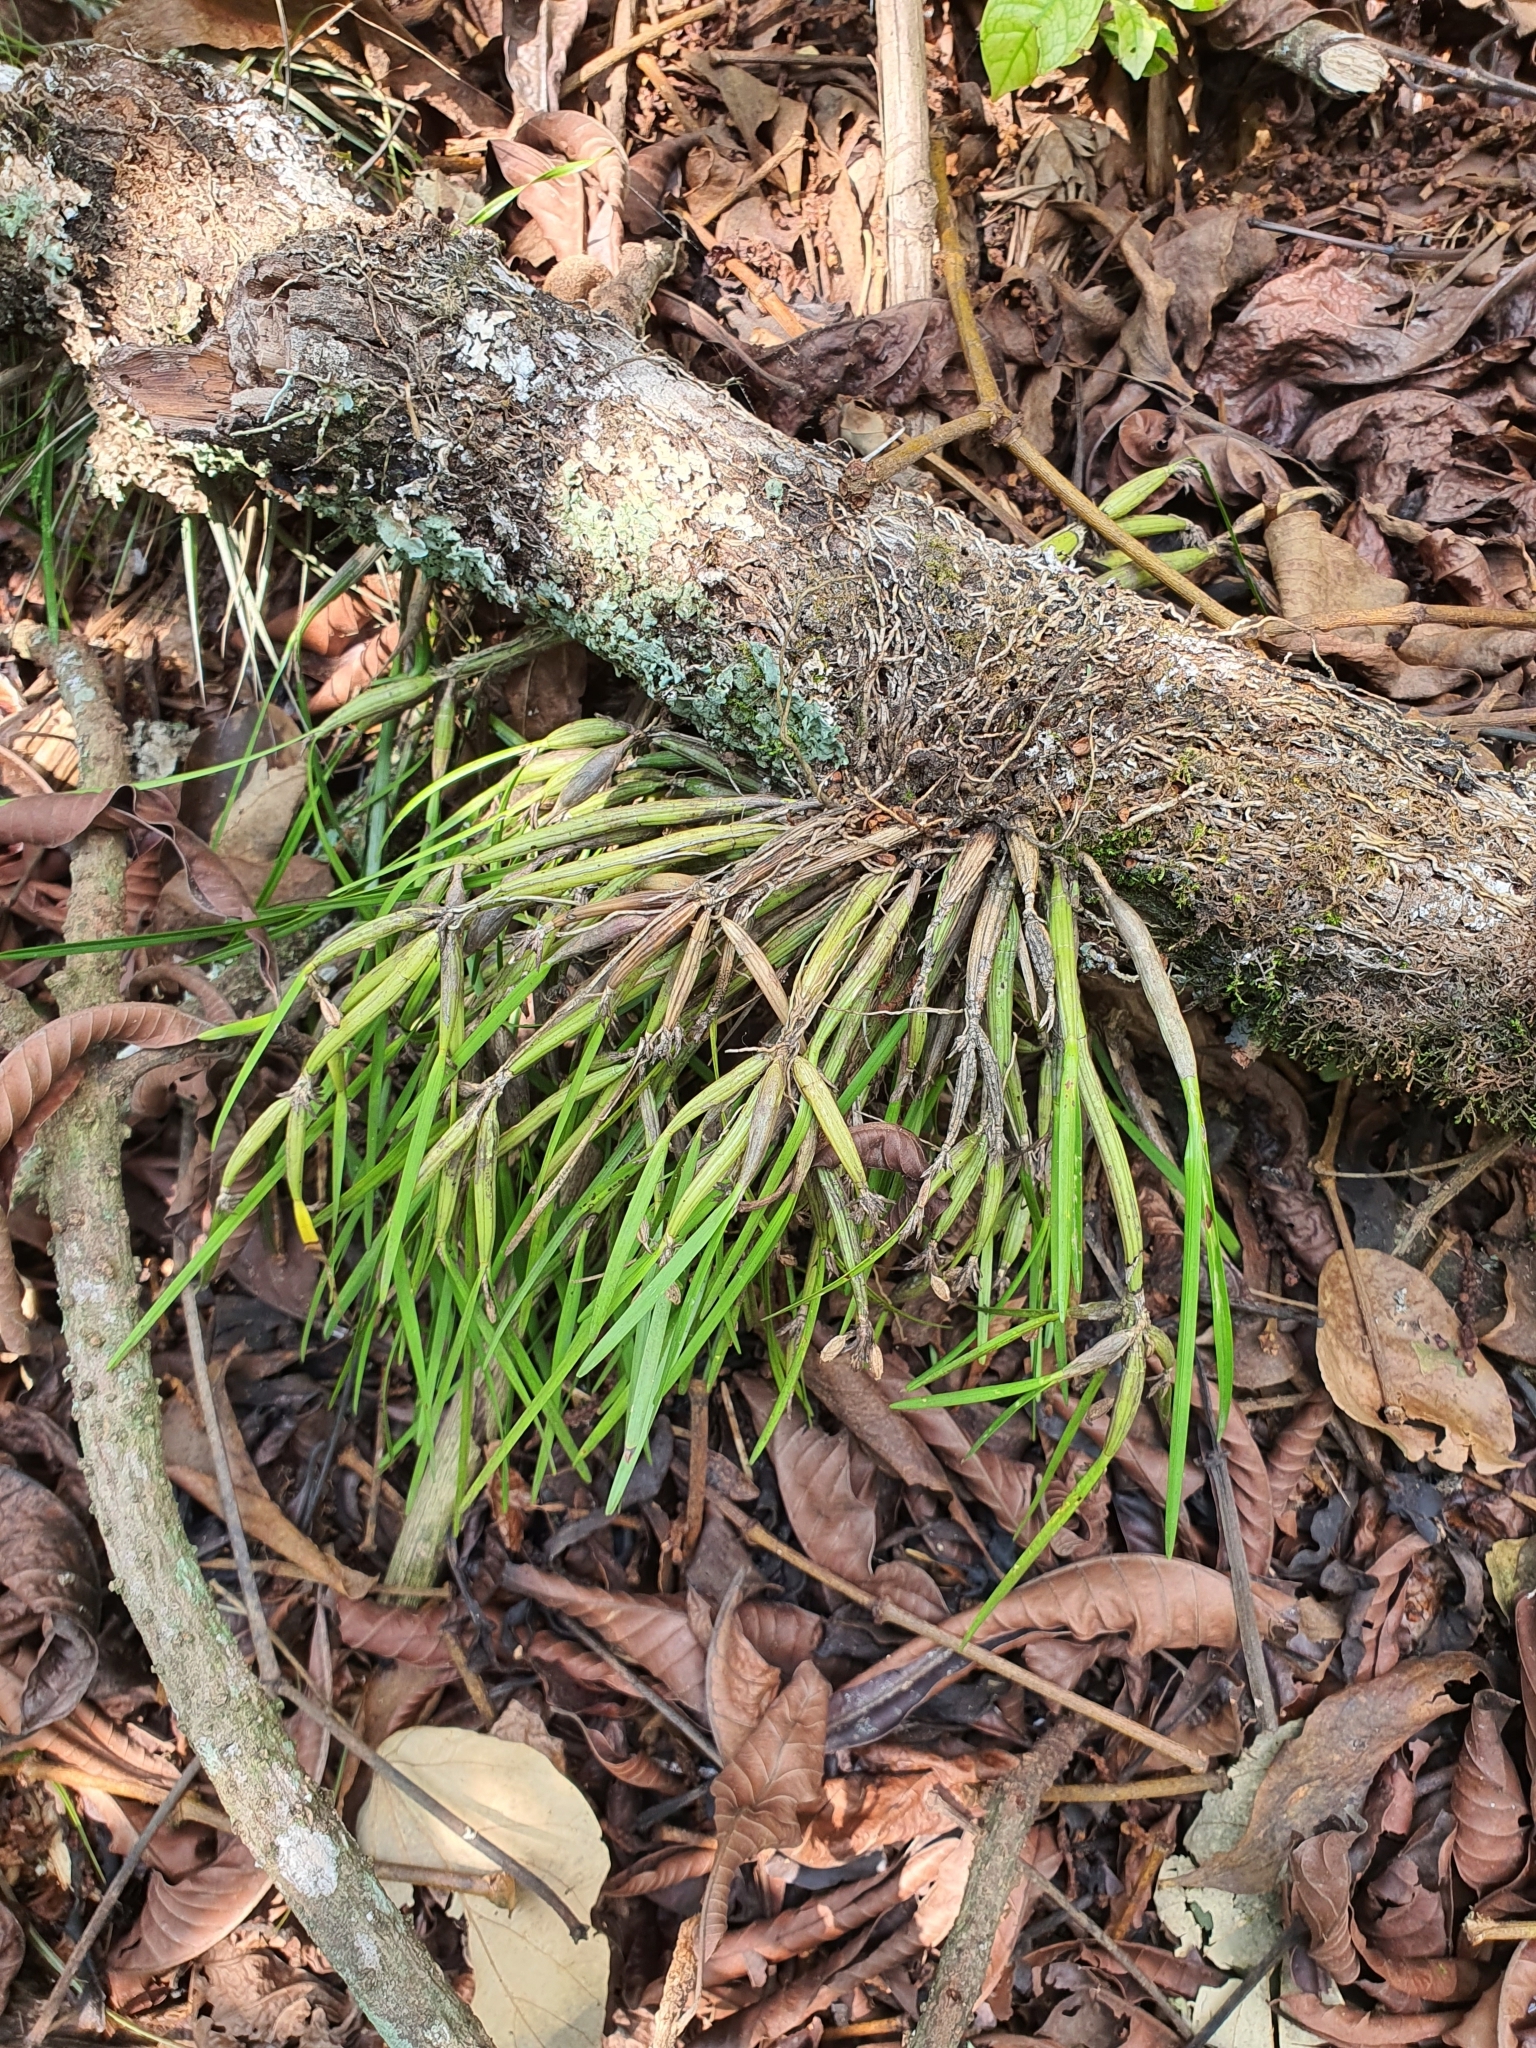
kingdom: Plantae
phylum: Tracheophyta
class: Liliopsida
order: Asparagales
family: Orchidaceae
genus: Scaphyglottis
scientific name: Scaphyglottis fasciculata
